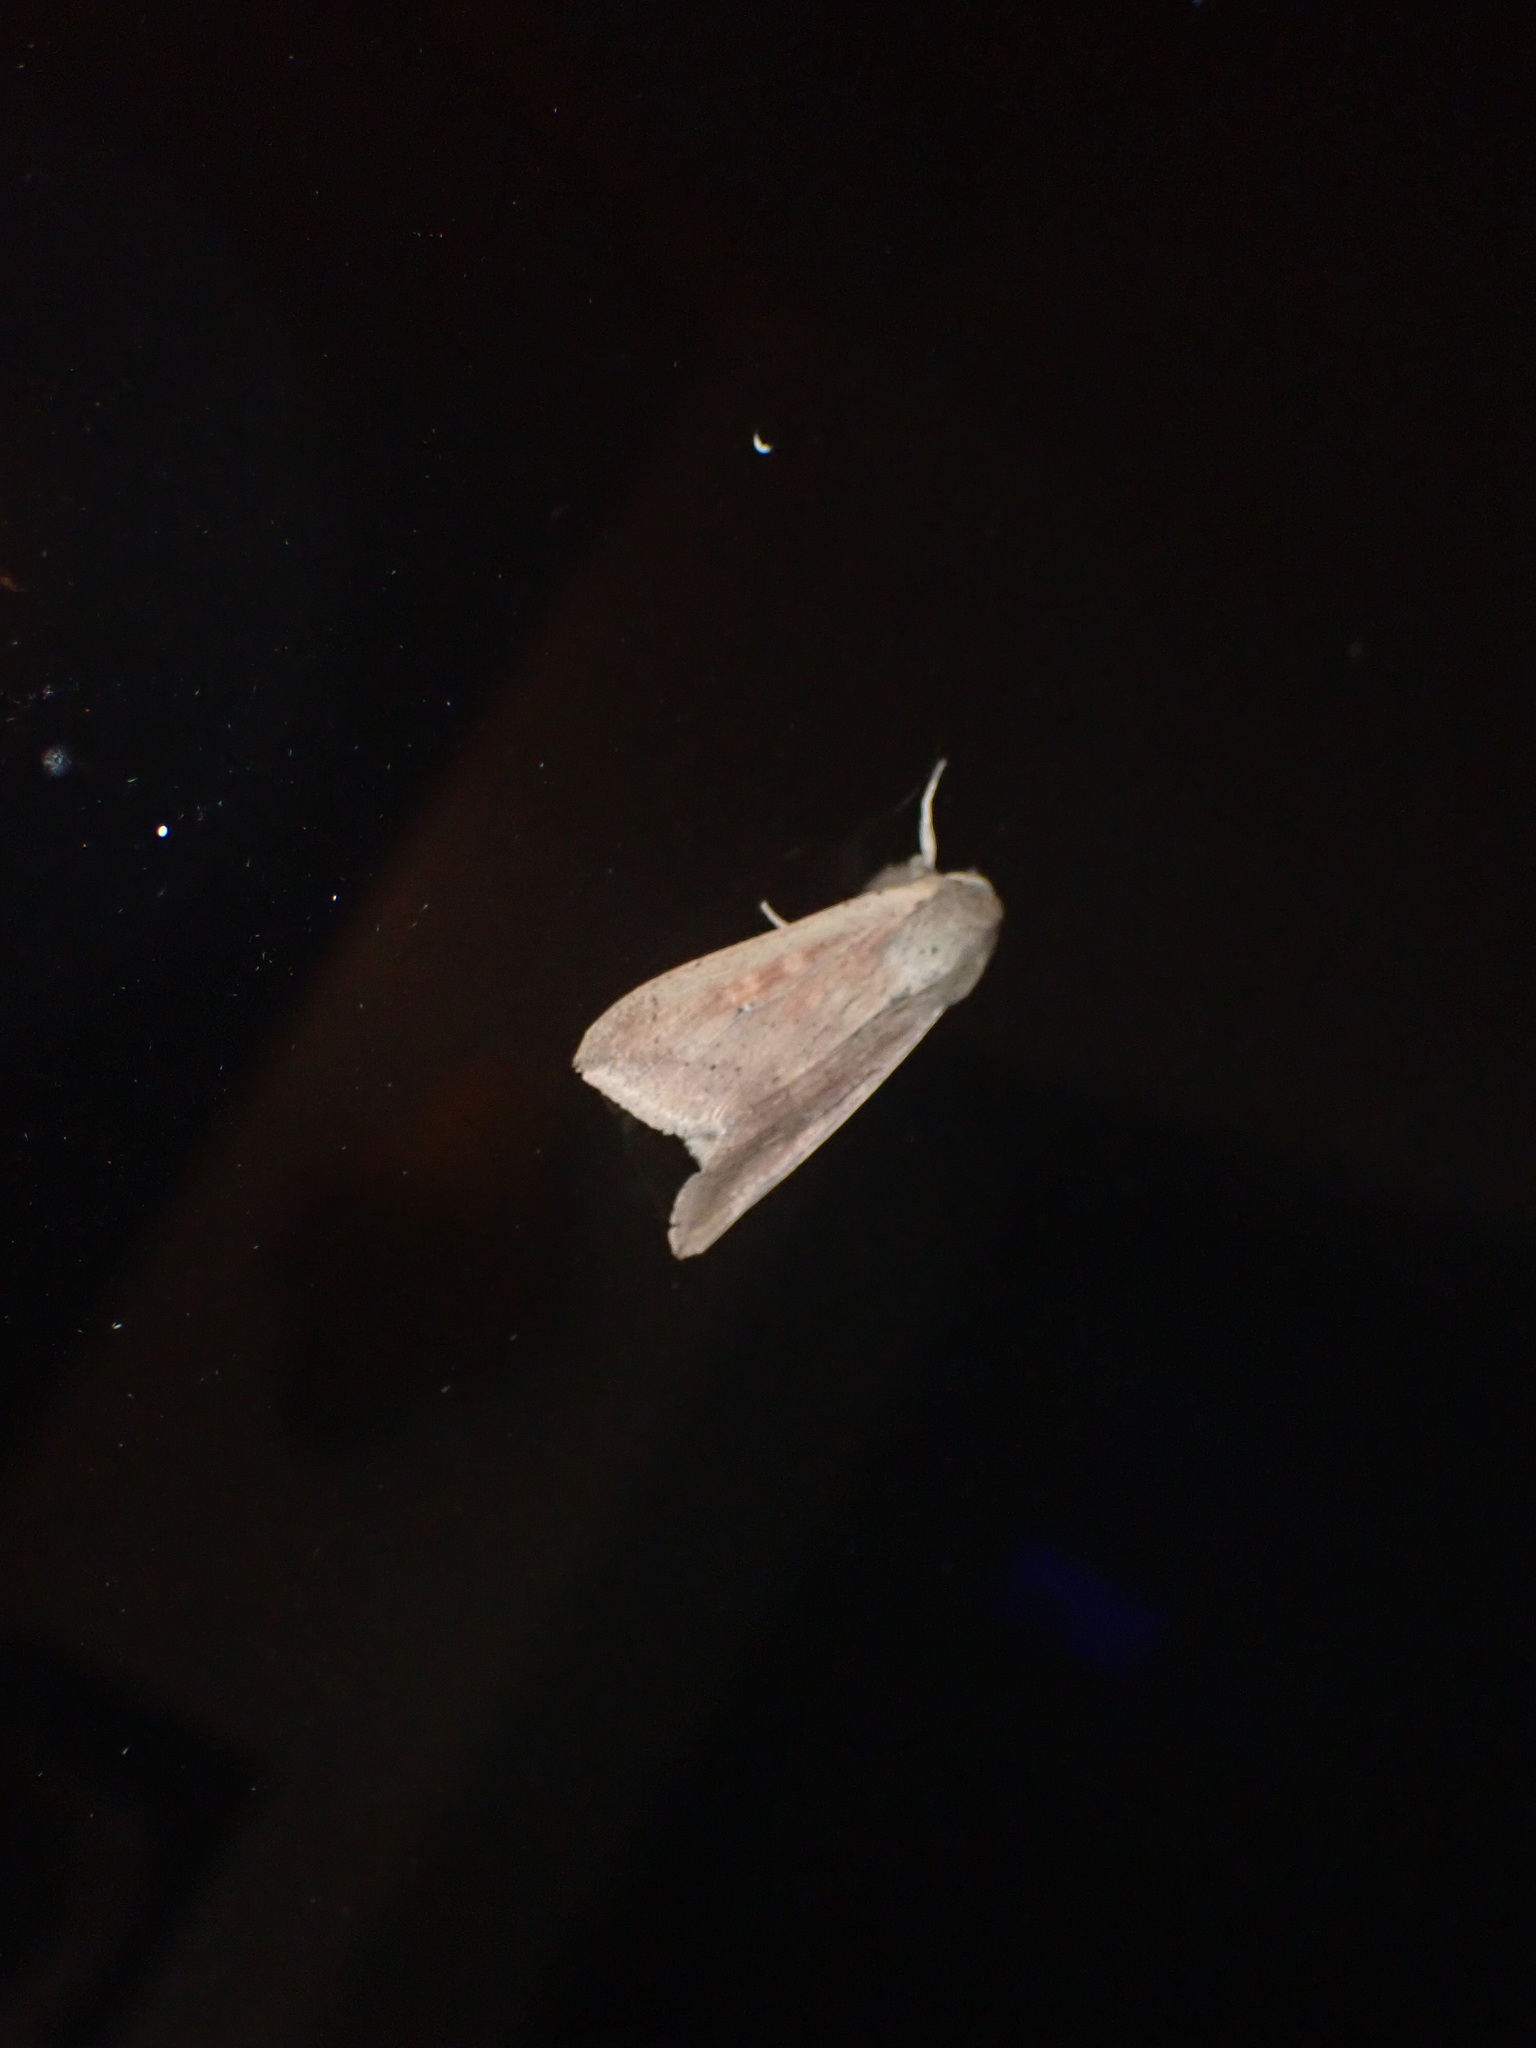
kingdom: Animalia
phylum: Arthropoda
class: Insecta
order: Lepidoptera
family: Noctuidae
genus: Mythimna
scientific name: Mythimna separata
